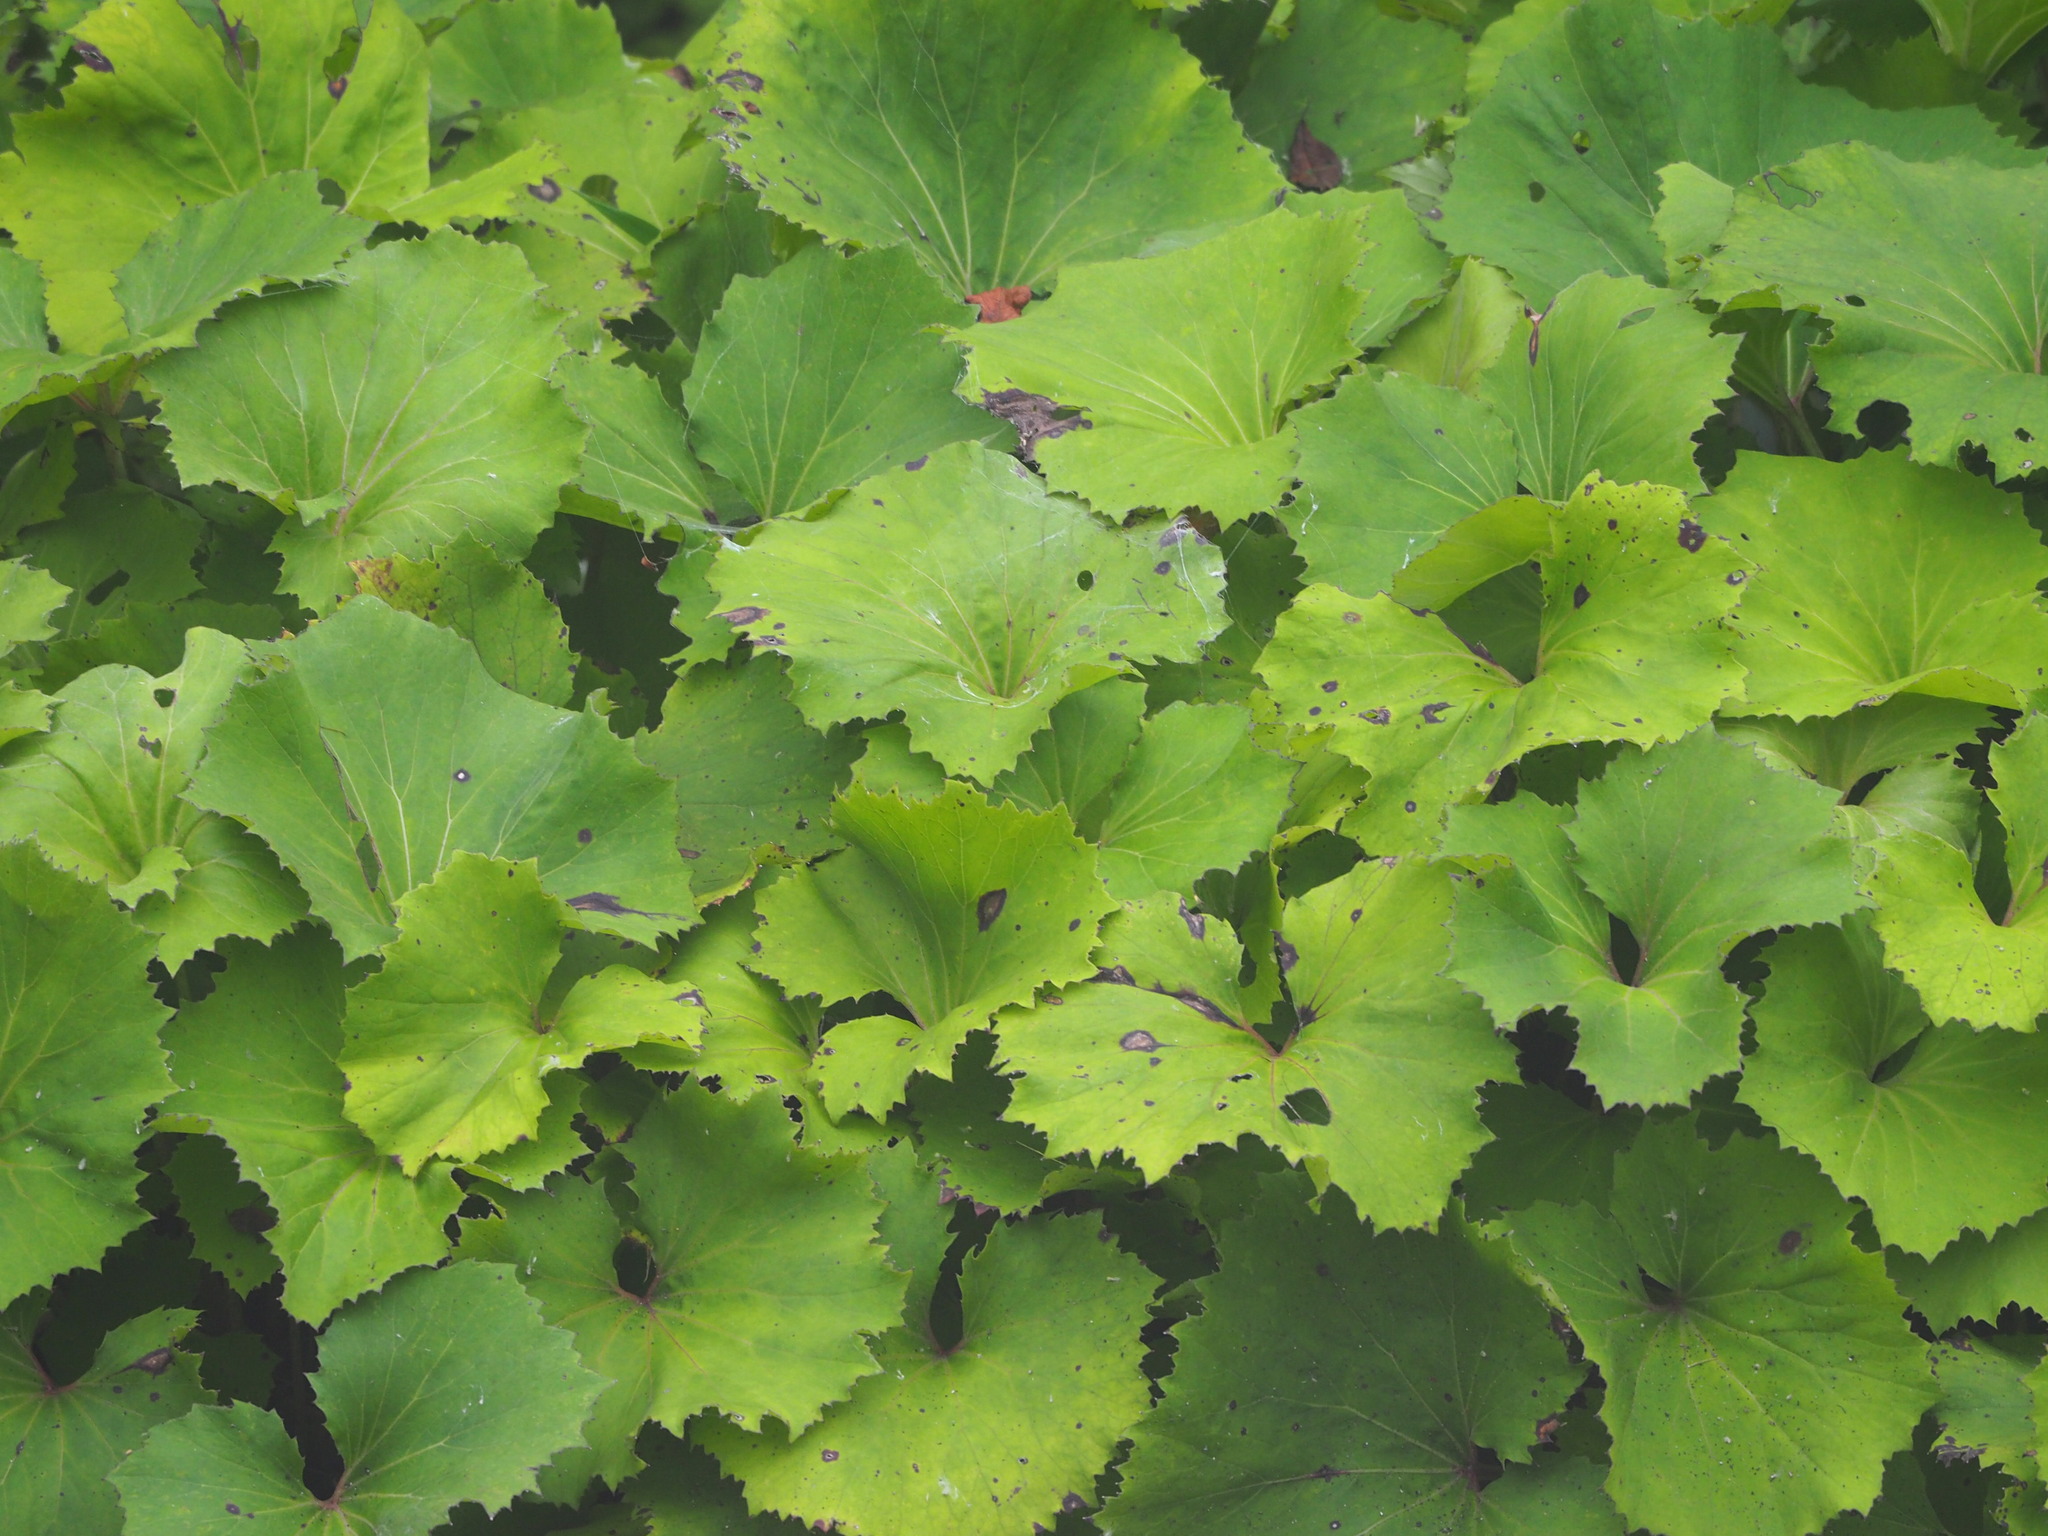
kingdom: Plantae
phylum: Tracheophyta
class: Magnoliopsida
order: Asterales
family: Asteraceae
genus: Petasites
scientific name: Petasites formosanus
